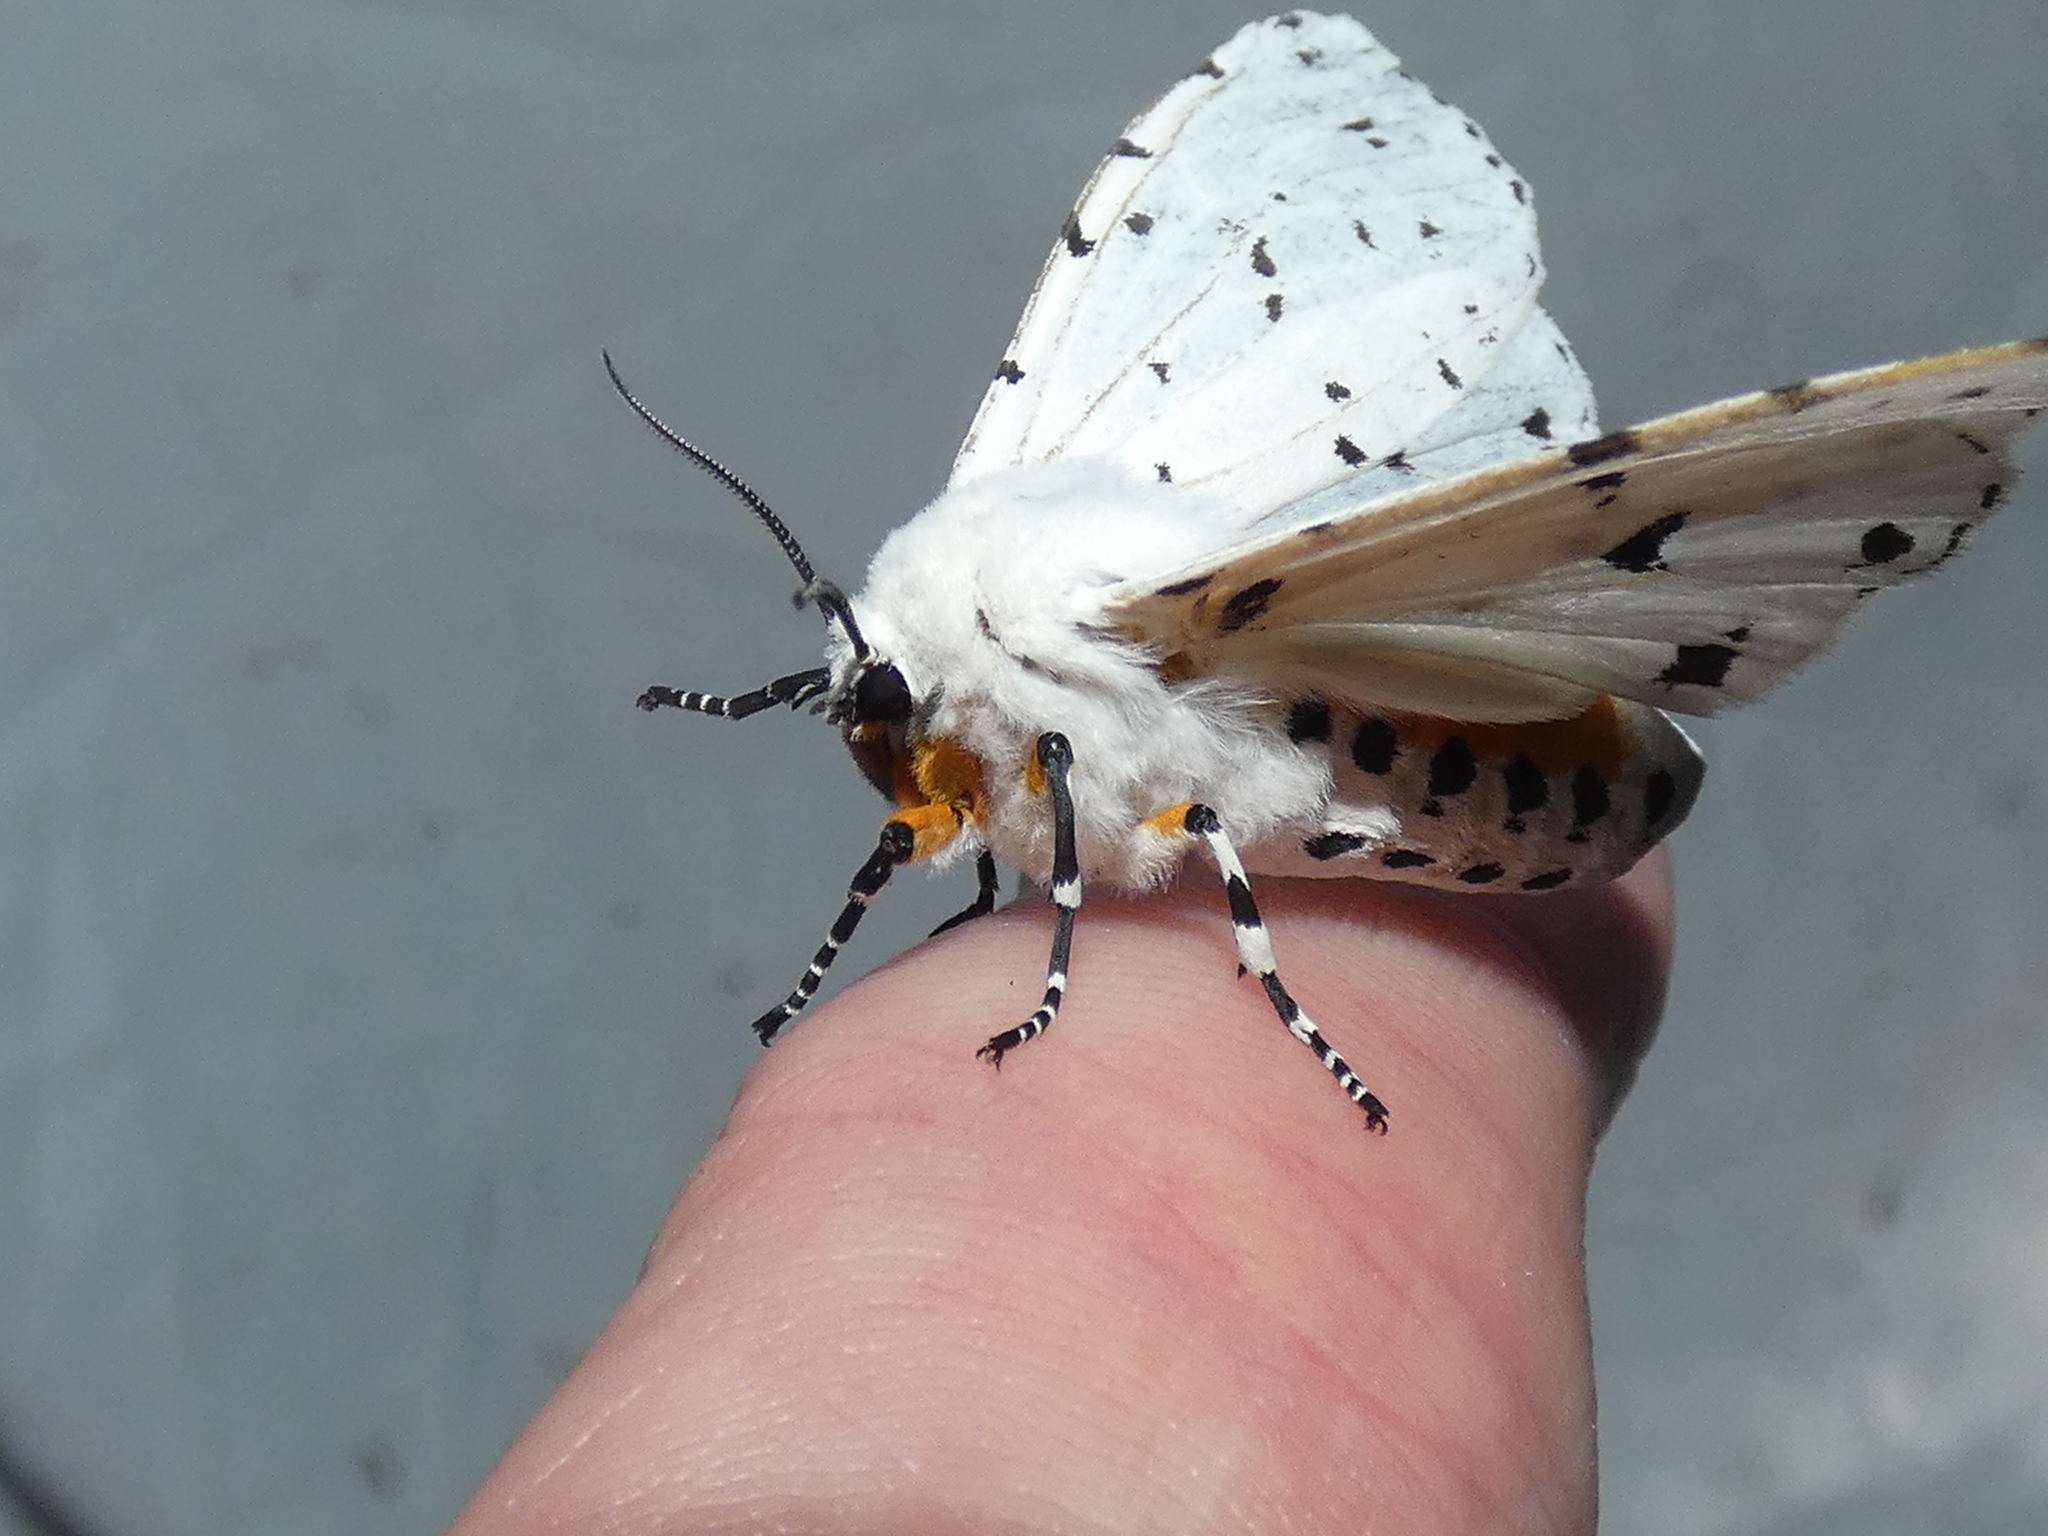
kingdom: Animalia
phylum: Arthropoda
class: Insecta
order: Lepidoptera
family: Erebidae
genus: Estigmene
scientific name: Estigmene acrea
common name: Salt marsh moth
